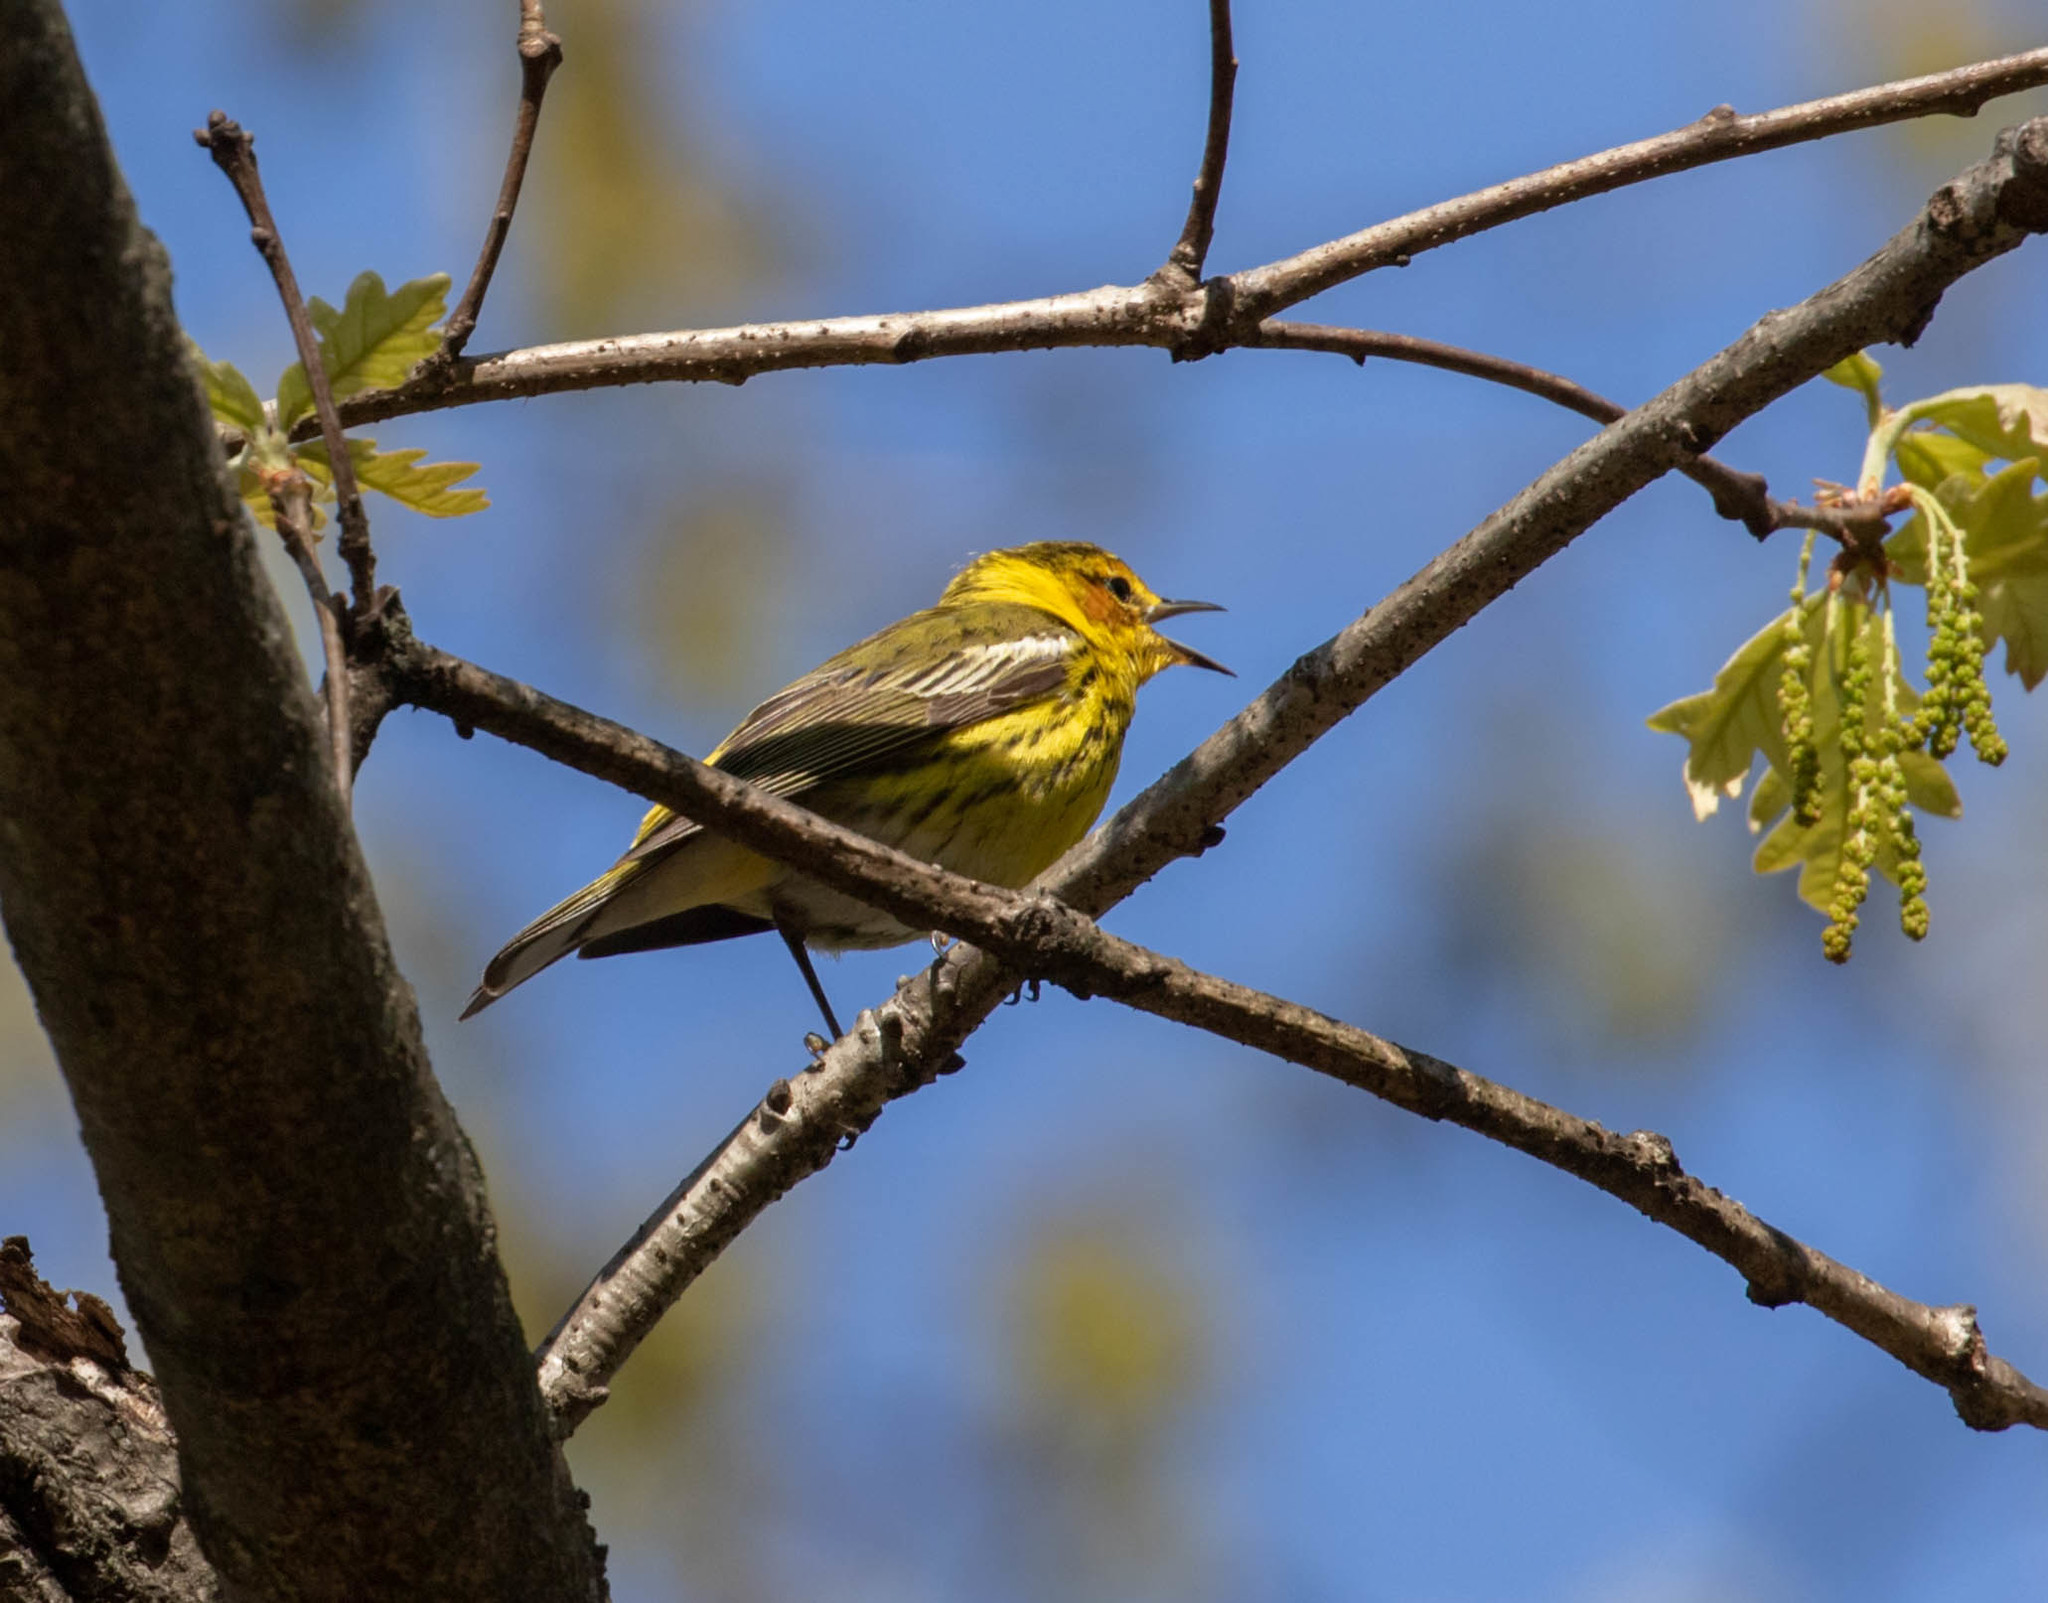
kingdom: Animalia
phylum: Chordata
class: Aves
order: Passeriformes
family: Parulidae
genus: Setophaga
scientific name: Setophaga tigrina
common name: Cape may warbler
